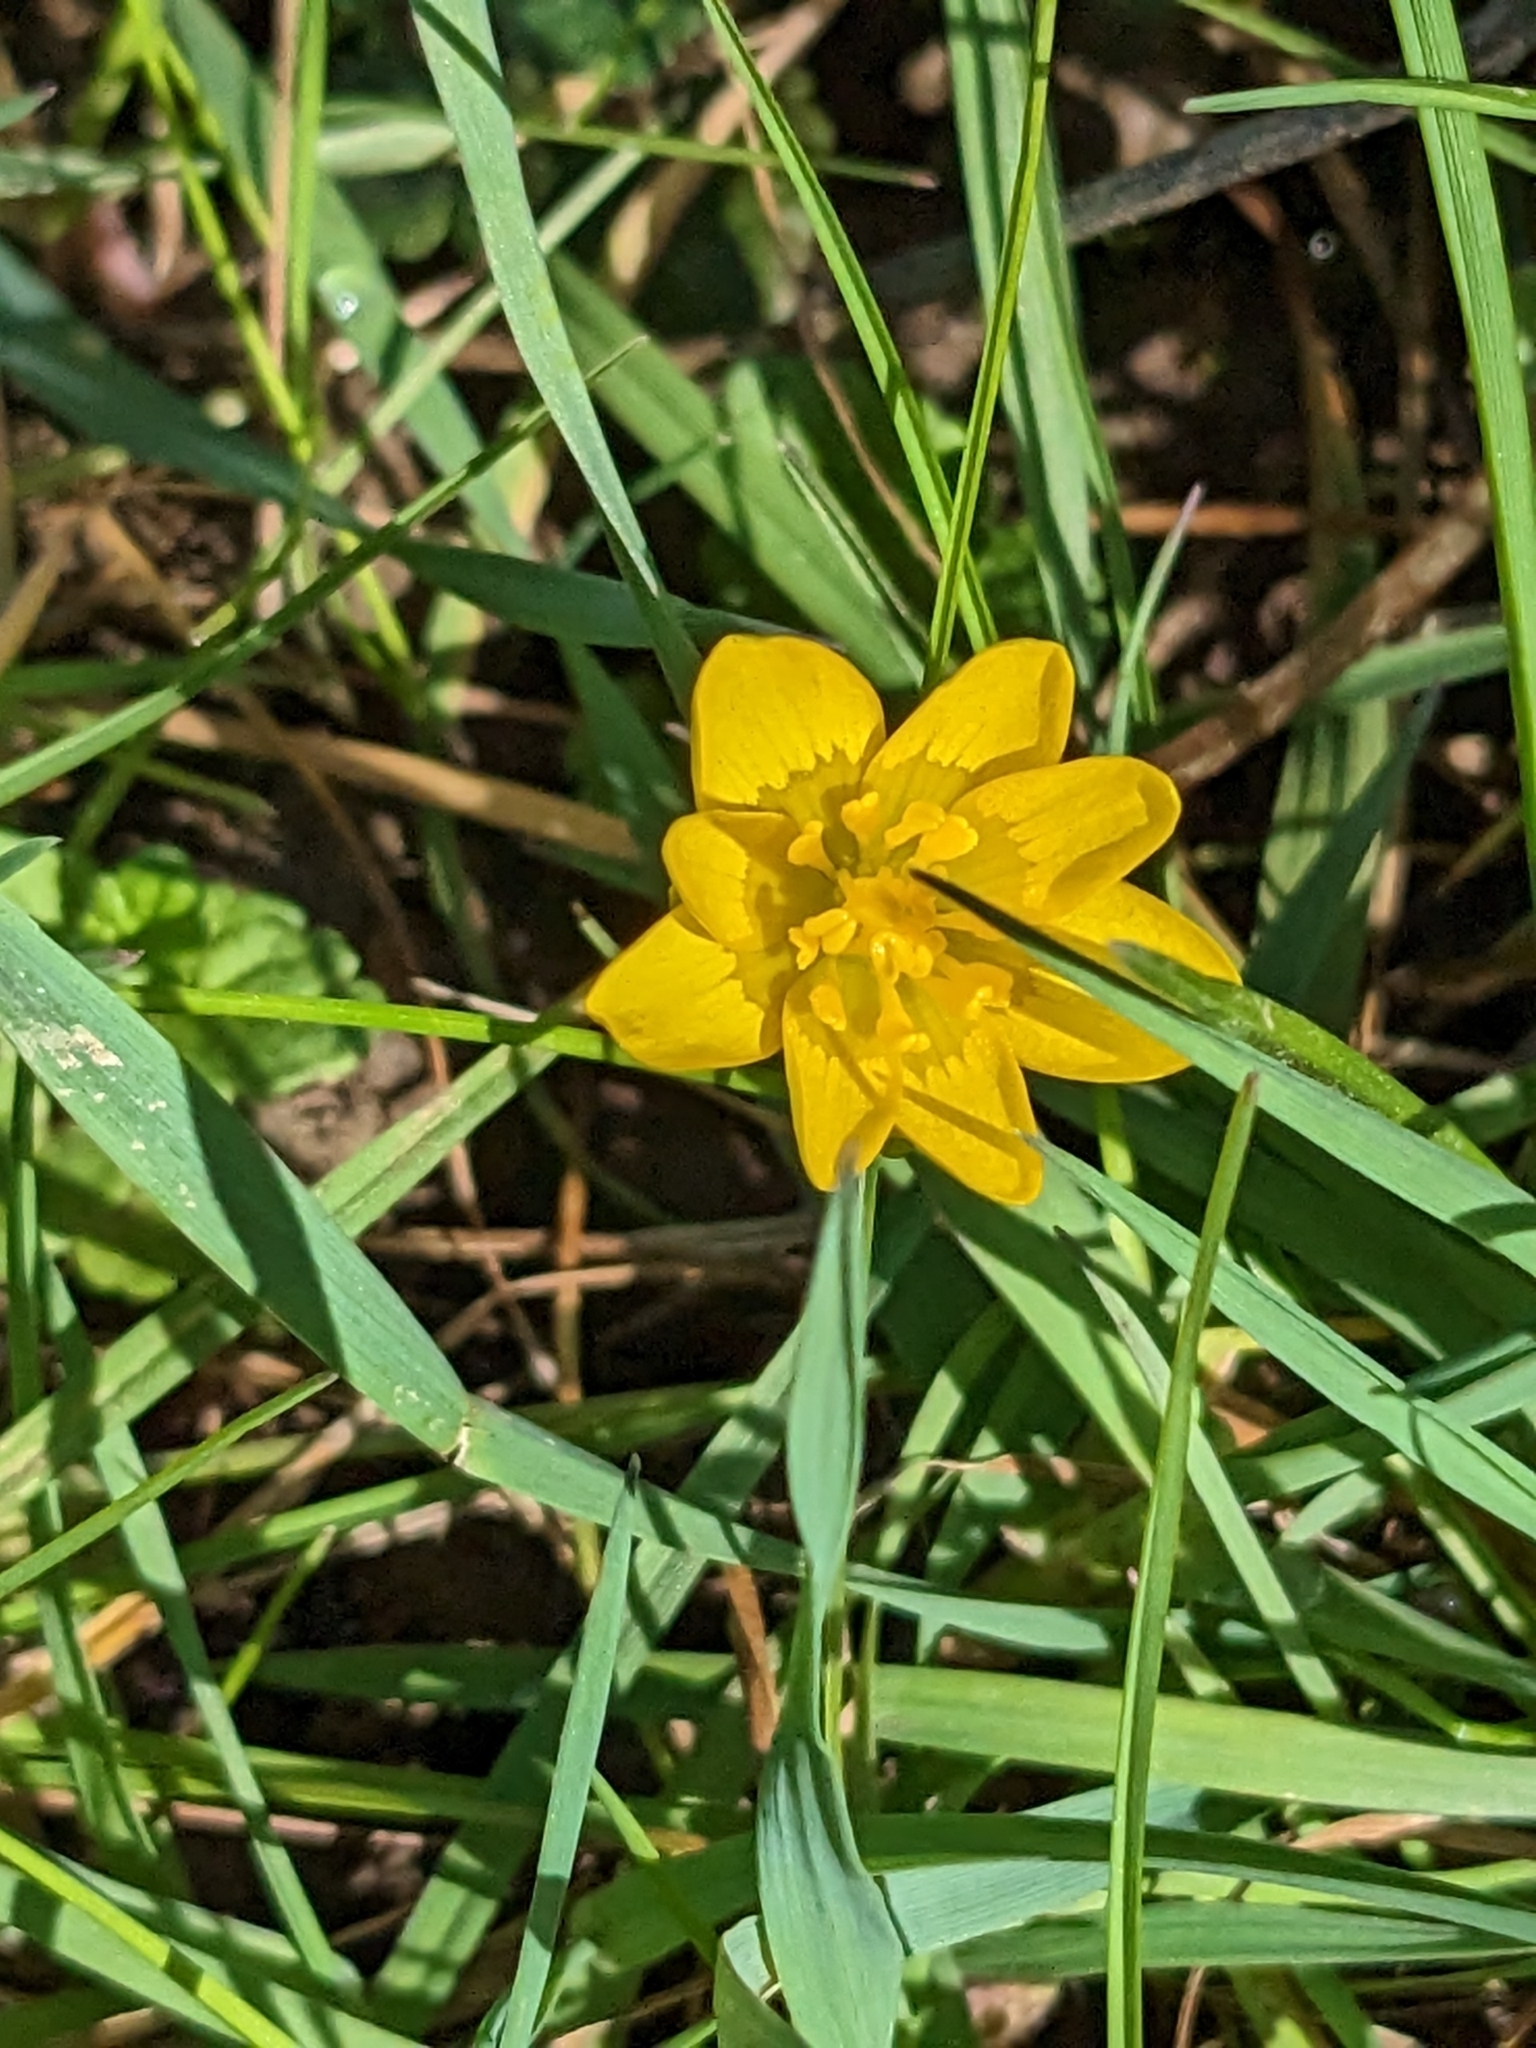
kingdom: Plantae
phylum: Tracheophyta
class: Magnoliopsida
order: Ranunculales
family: Ranunculaceae
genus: Ficaria
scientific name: Ficaria verna
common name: Lesser celandine
